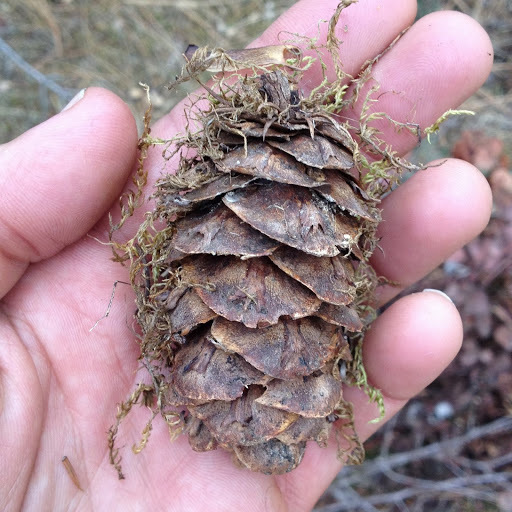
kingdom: Plantae
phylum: Tracheophyta
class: Pinopsida
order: Pinales
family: Pinaceae
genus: Pseudotsuga
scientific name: Pseudotsuga menziesii
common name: Douglas fir
